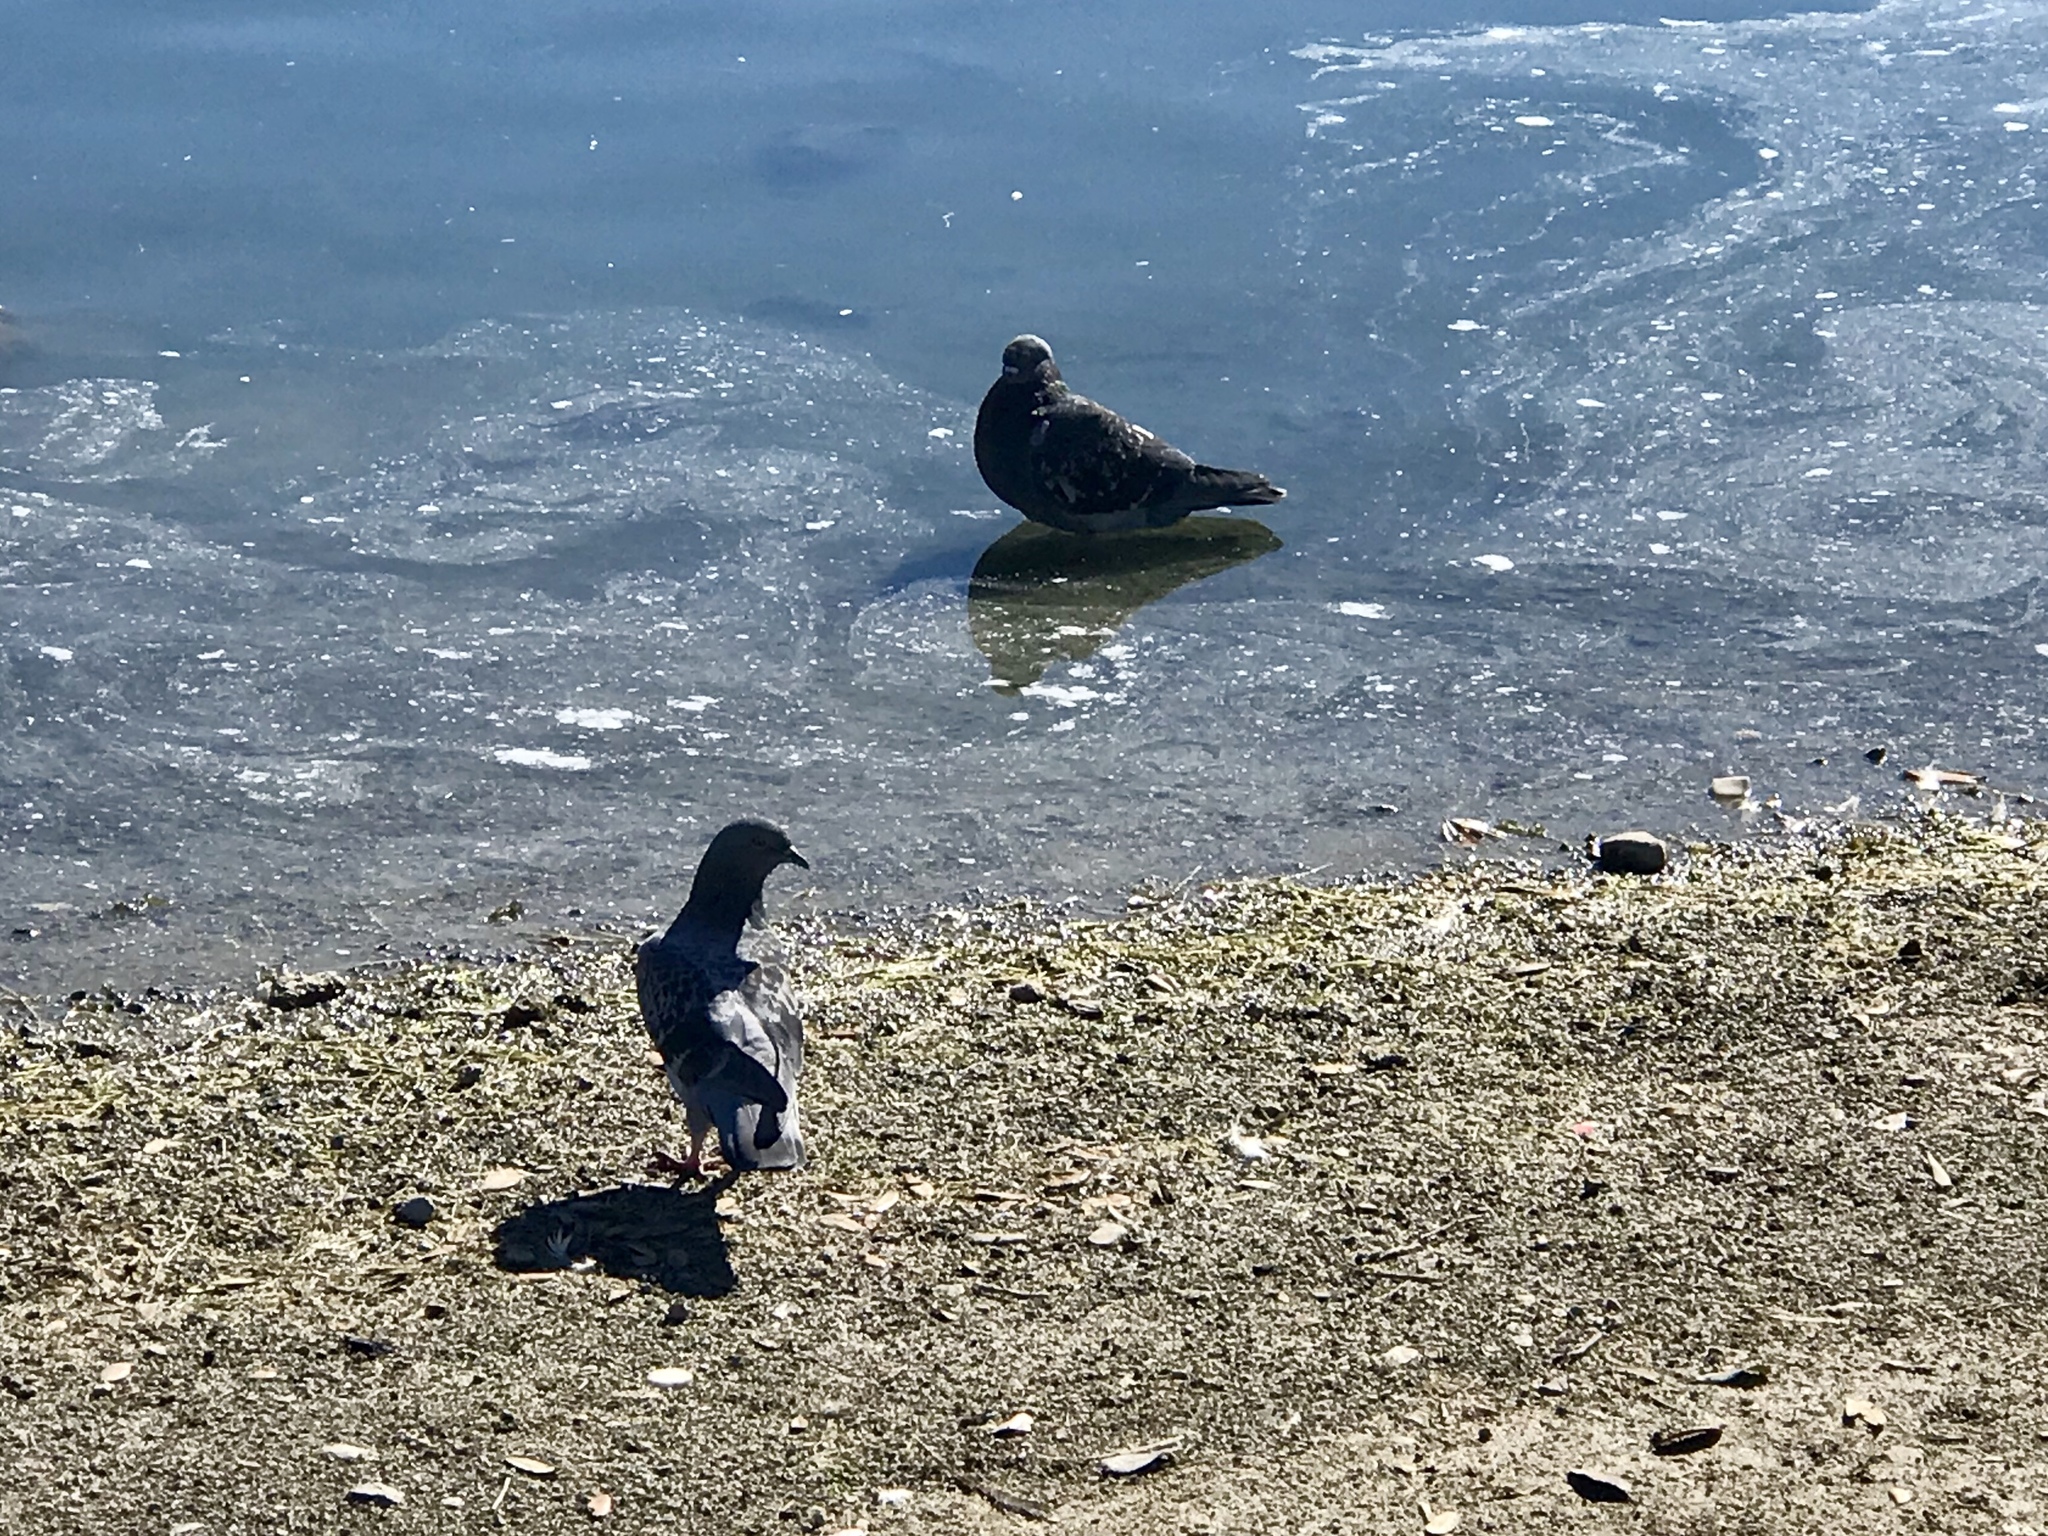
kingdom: Animalia
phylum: Chordata
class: Aves
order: Columbiformes
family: Columbidae
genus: Columba
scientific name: Columba livia
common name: Rock pigeon
